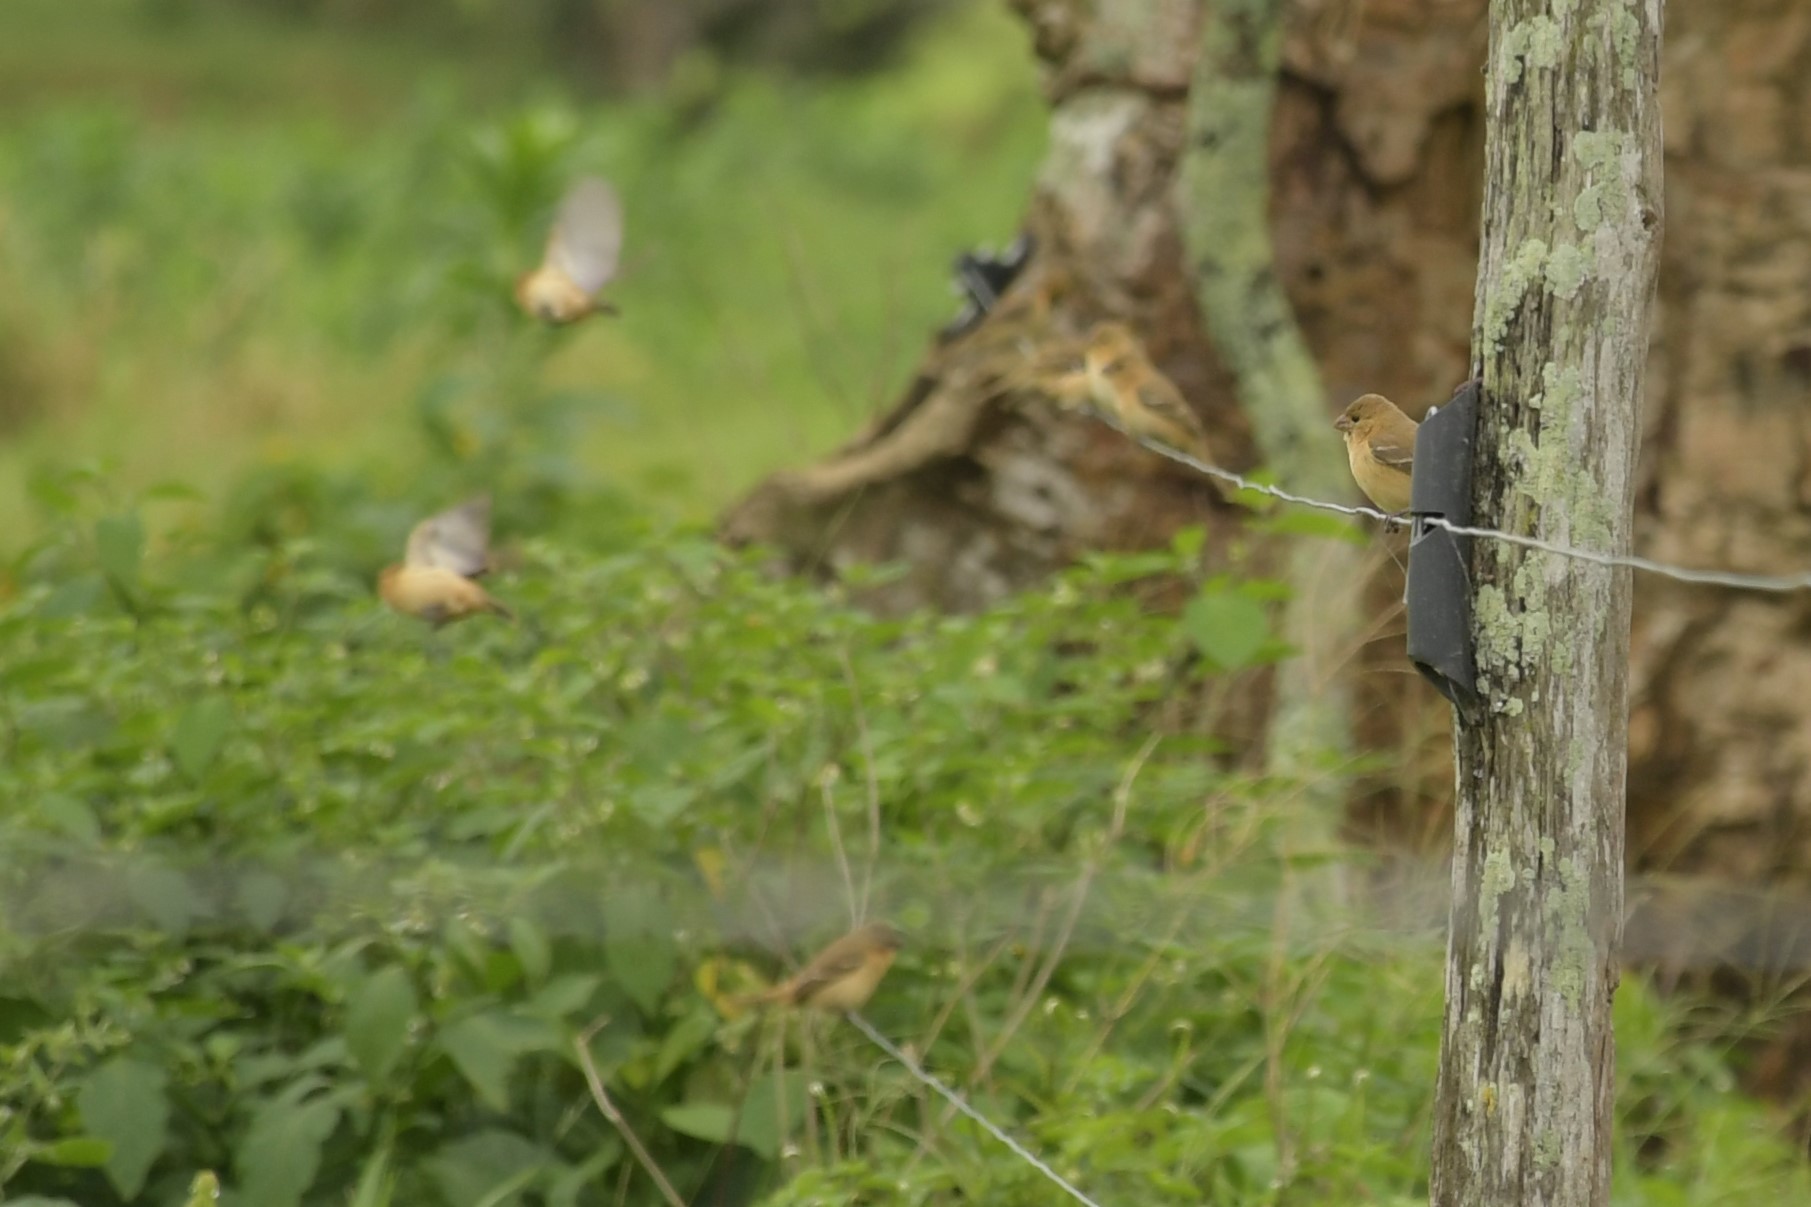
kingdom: Animalia
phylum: Chordata
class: Aves
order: Passeriformes
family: Thraupidae
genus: Sporophila
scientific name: Sporophila morelleti
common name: Morelet's seedeater
